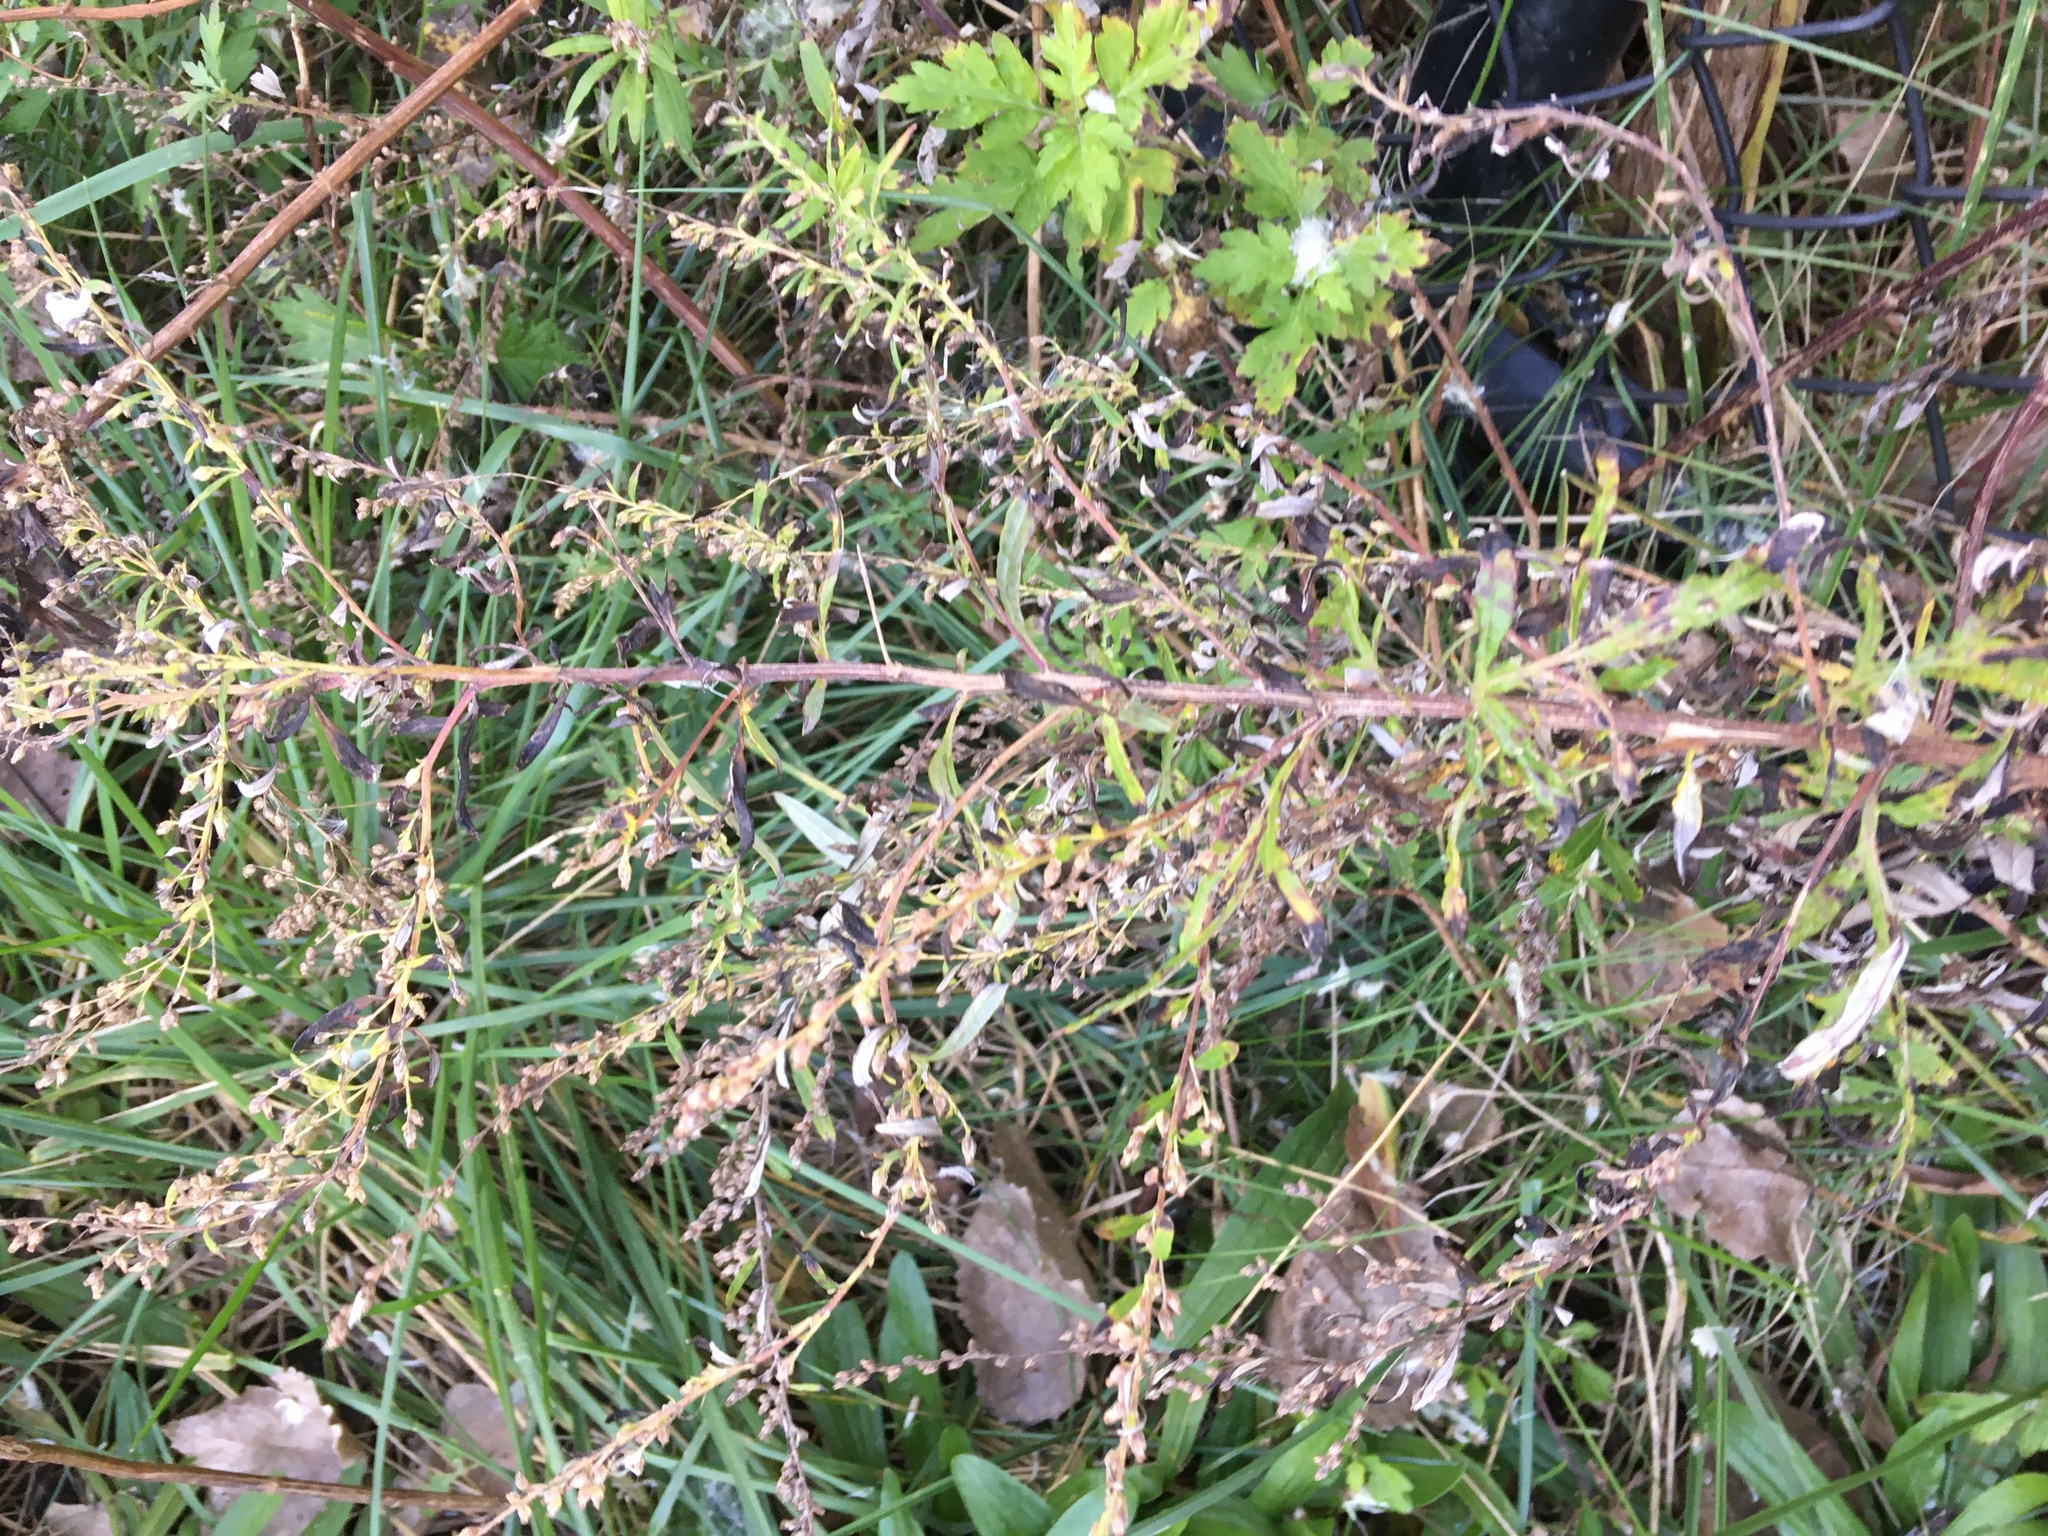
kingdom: Plantae
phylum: Tracheophyta
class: Magnoliopsida
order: Asterales
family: Asteraceae
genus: Artemisia
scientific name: Artemisia vulgaris
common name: Mugwort
